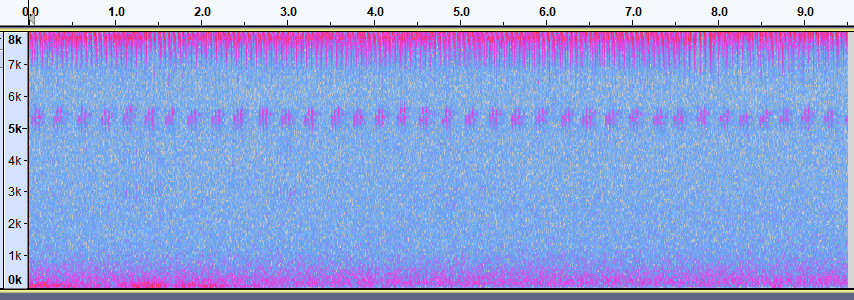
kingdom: Animalia
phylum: Arthropoda
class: Insecta
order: Orthoptera
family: Gryllidae
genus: Gryllus
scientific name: Gryllus pennsylvanicus
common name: Fall field cricket
